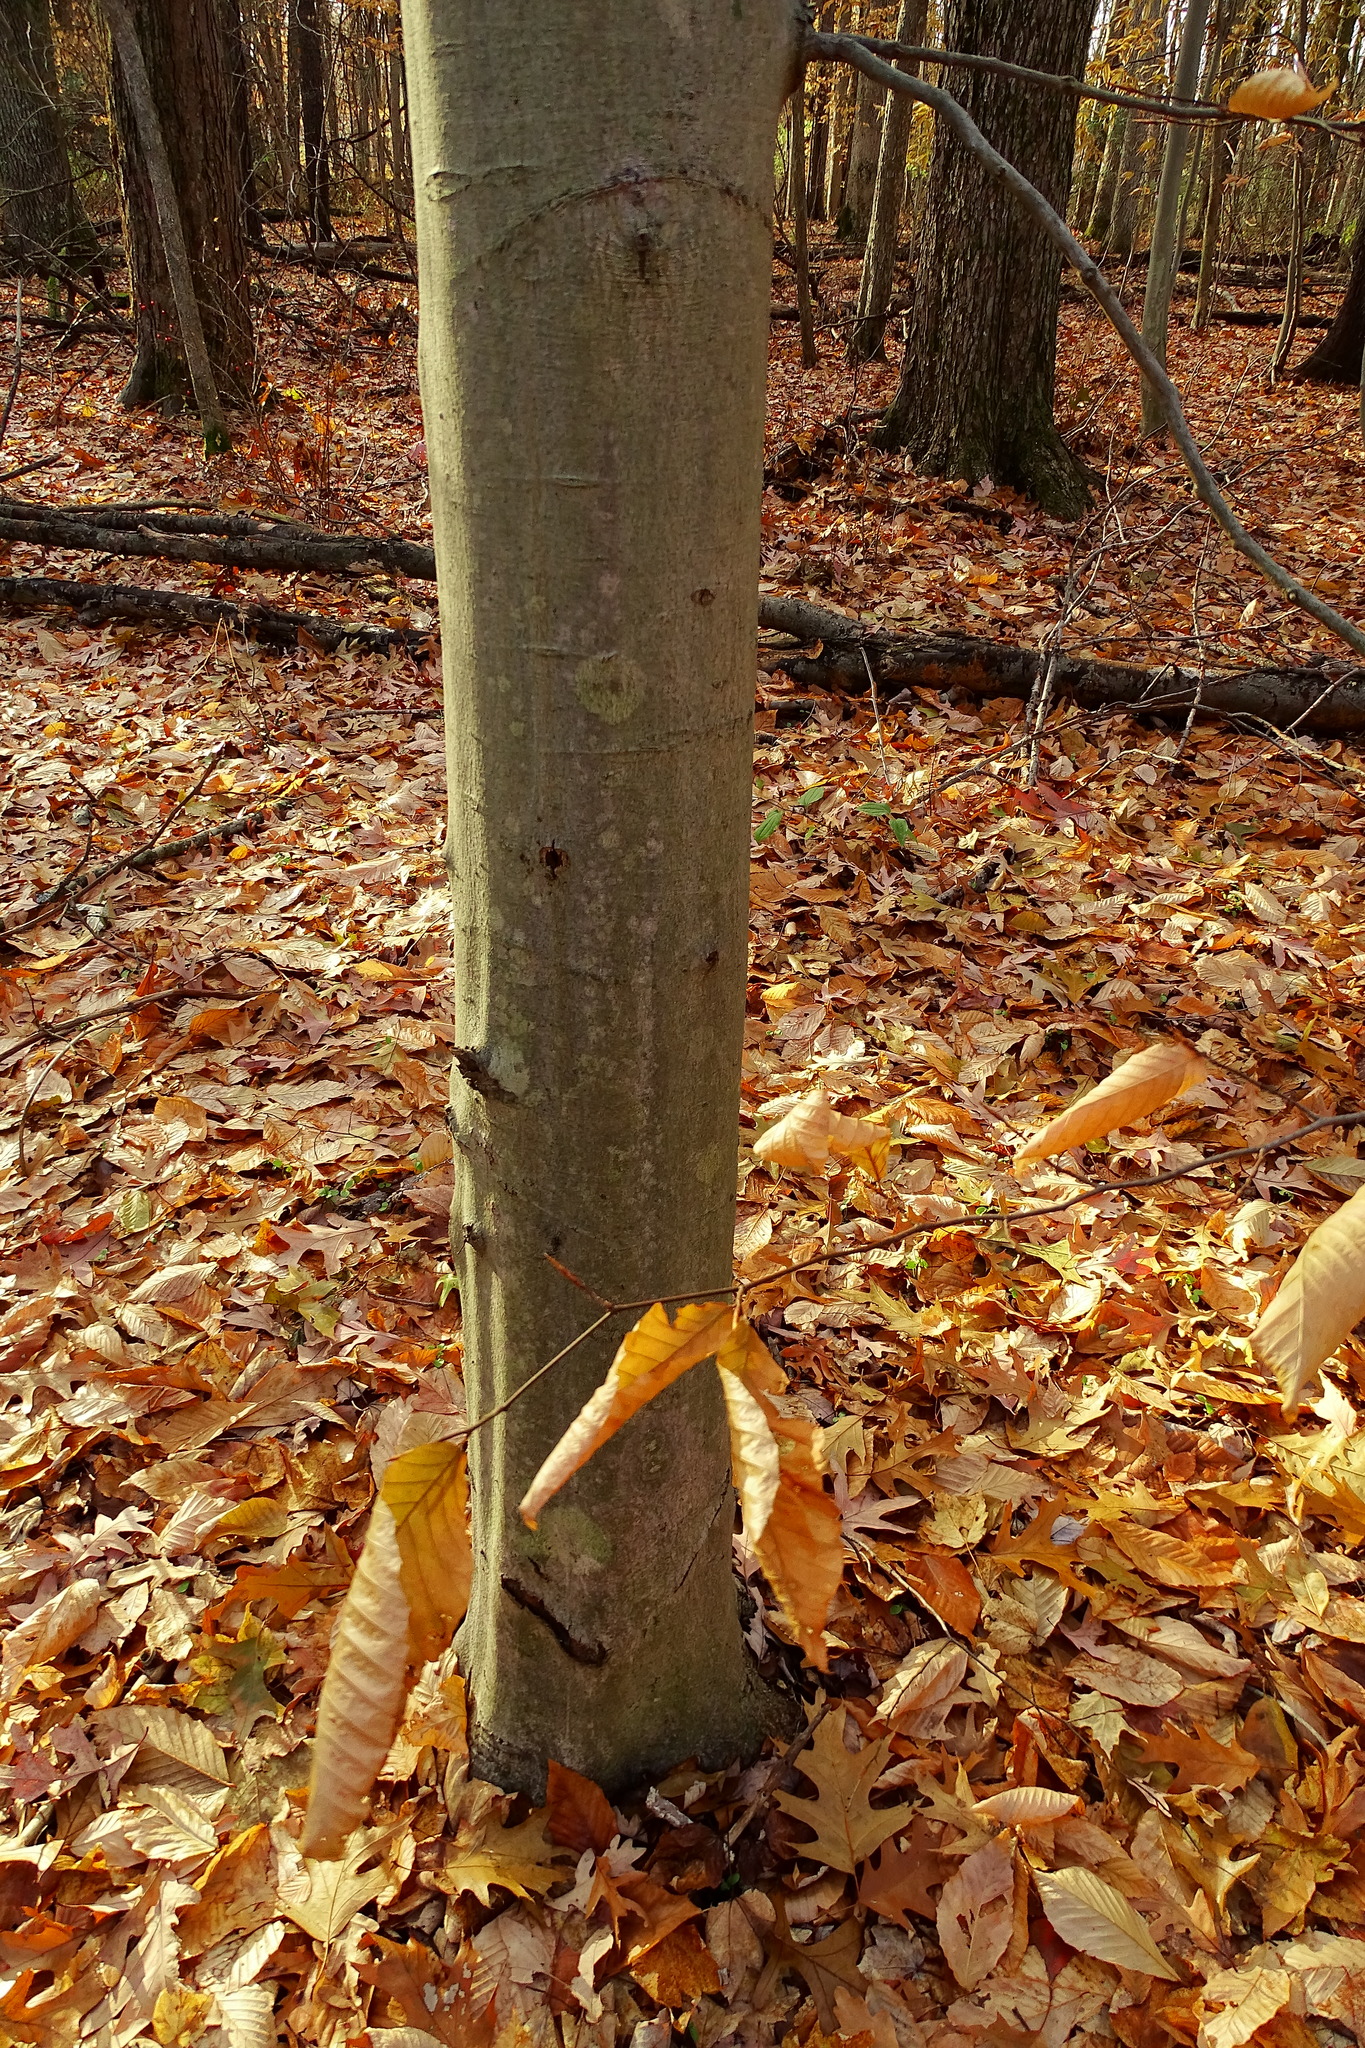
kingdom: Plantae
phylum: Tracheophyta
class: Magnoliopsida
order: Fagales
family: Fagaceae
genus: Fagus
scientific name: Fagus grandifolia
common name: American beech
